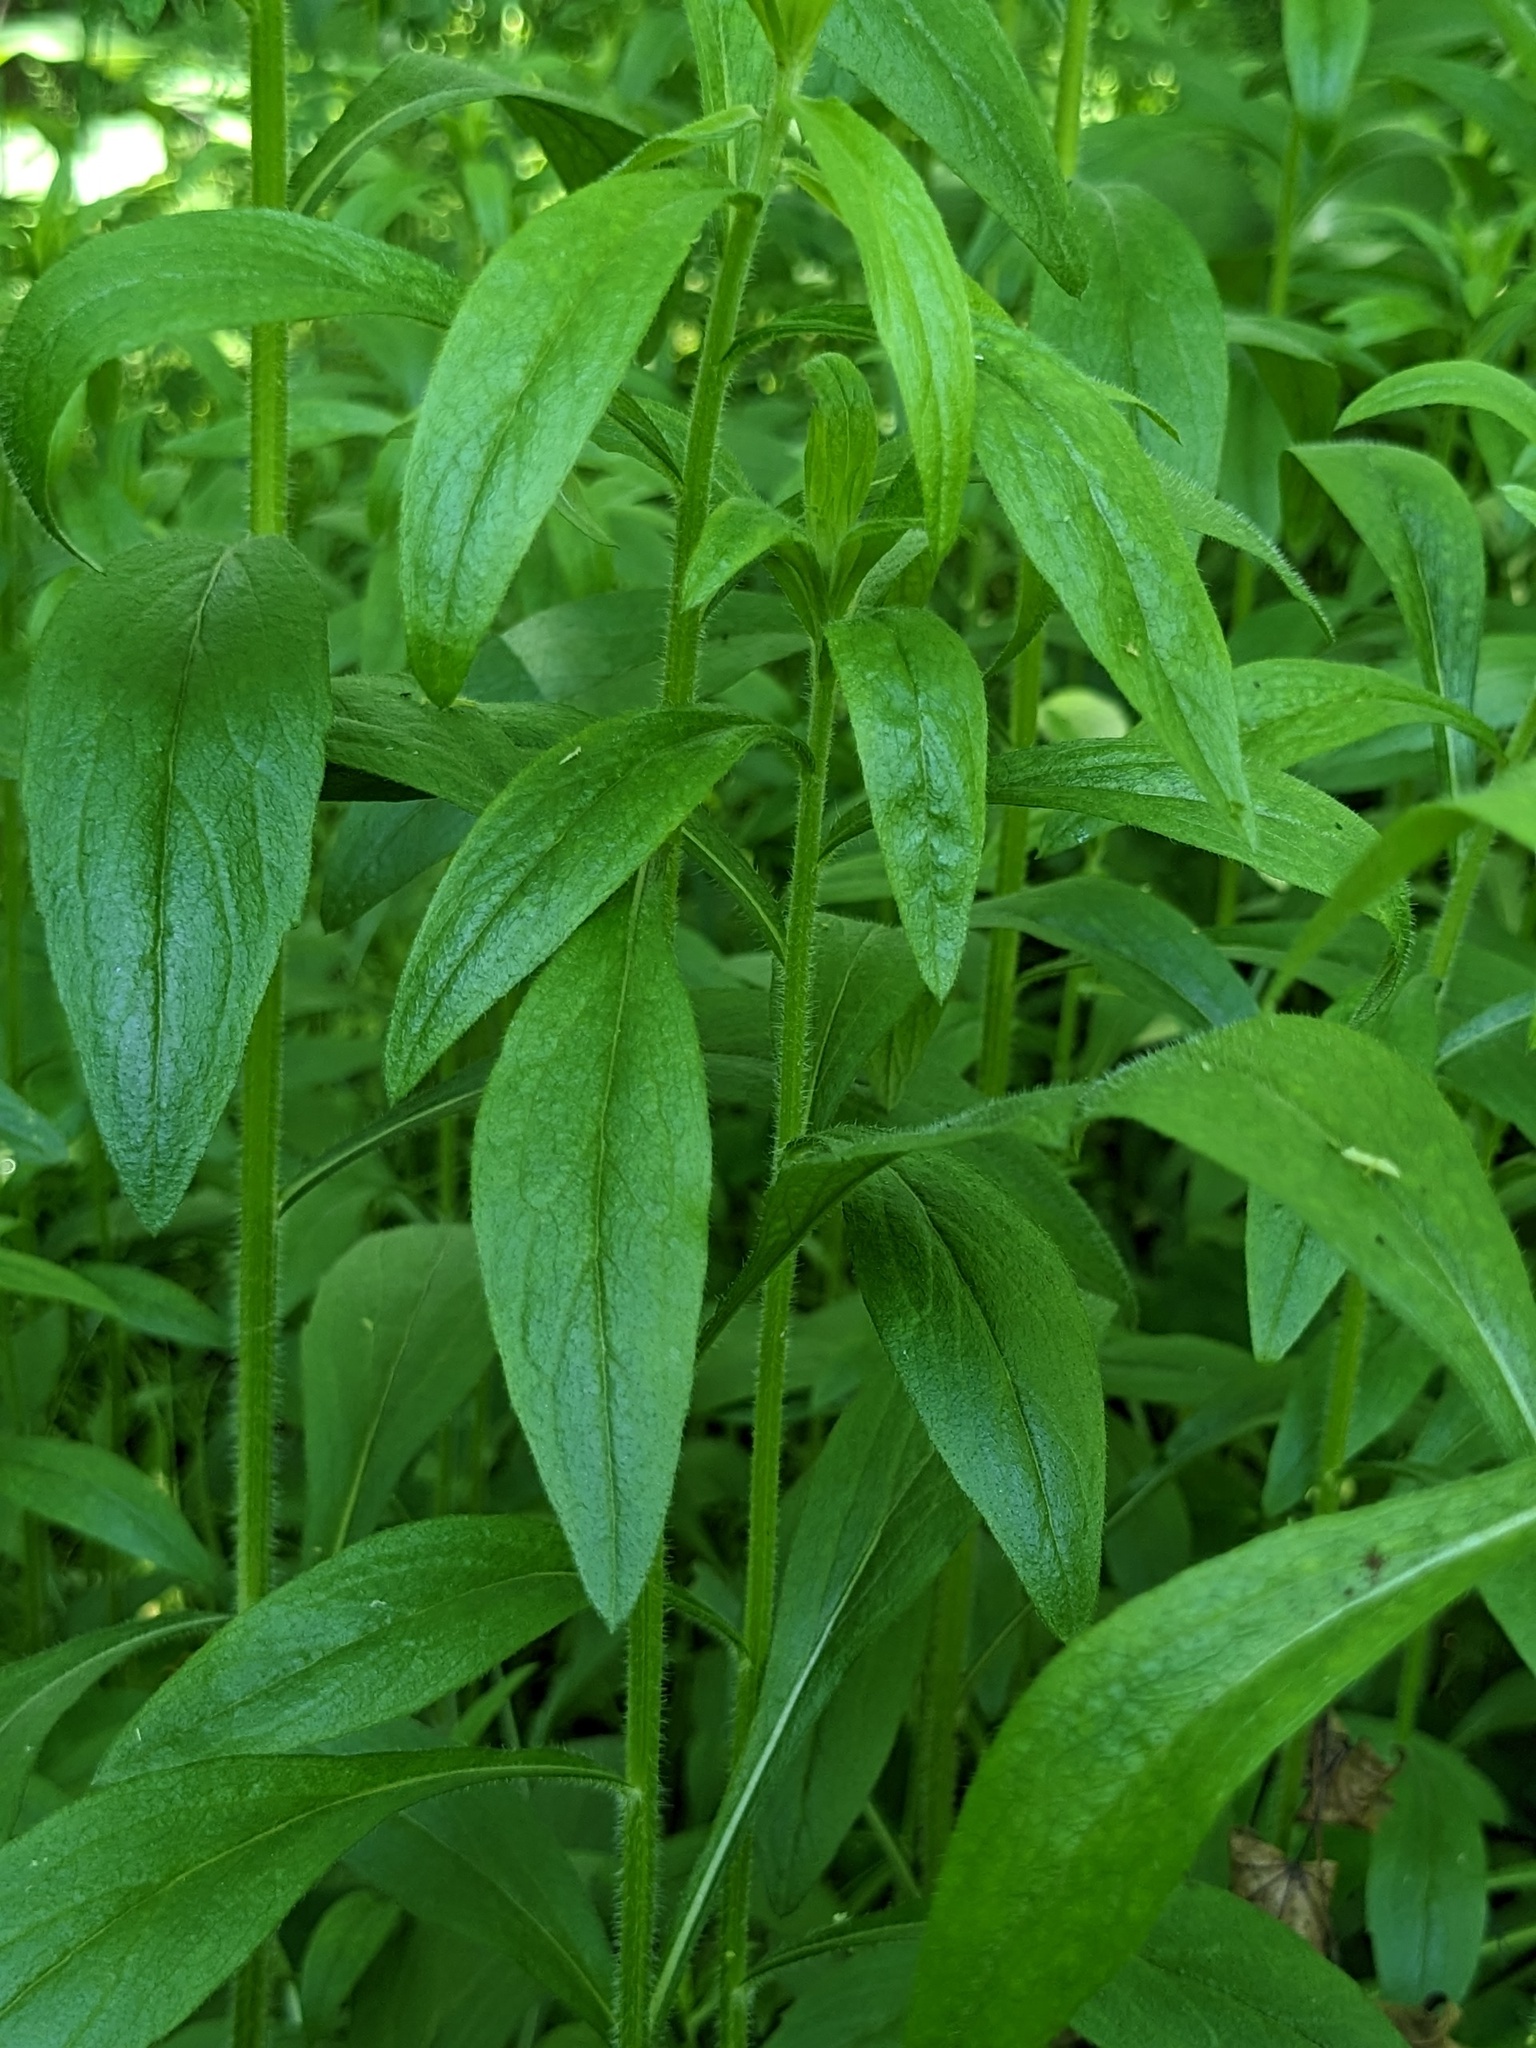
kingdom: Plantae
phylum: Tracheophyta
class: Magnoliopsida
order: Asterales
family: Asteraceae
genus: Solidago
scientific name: Solidago canadensis
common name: Canada goldenrod
